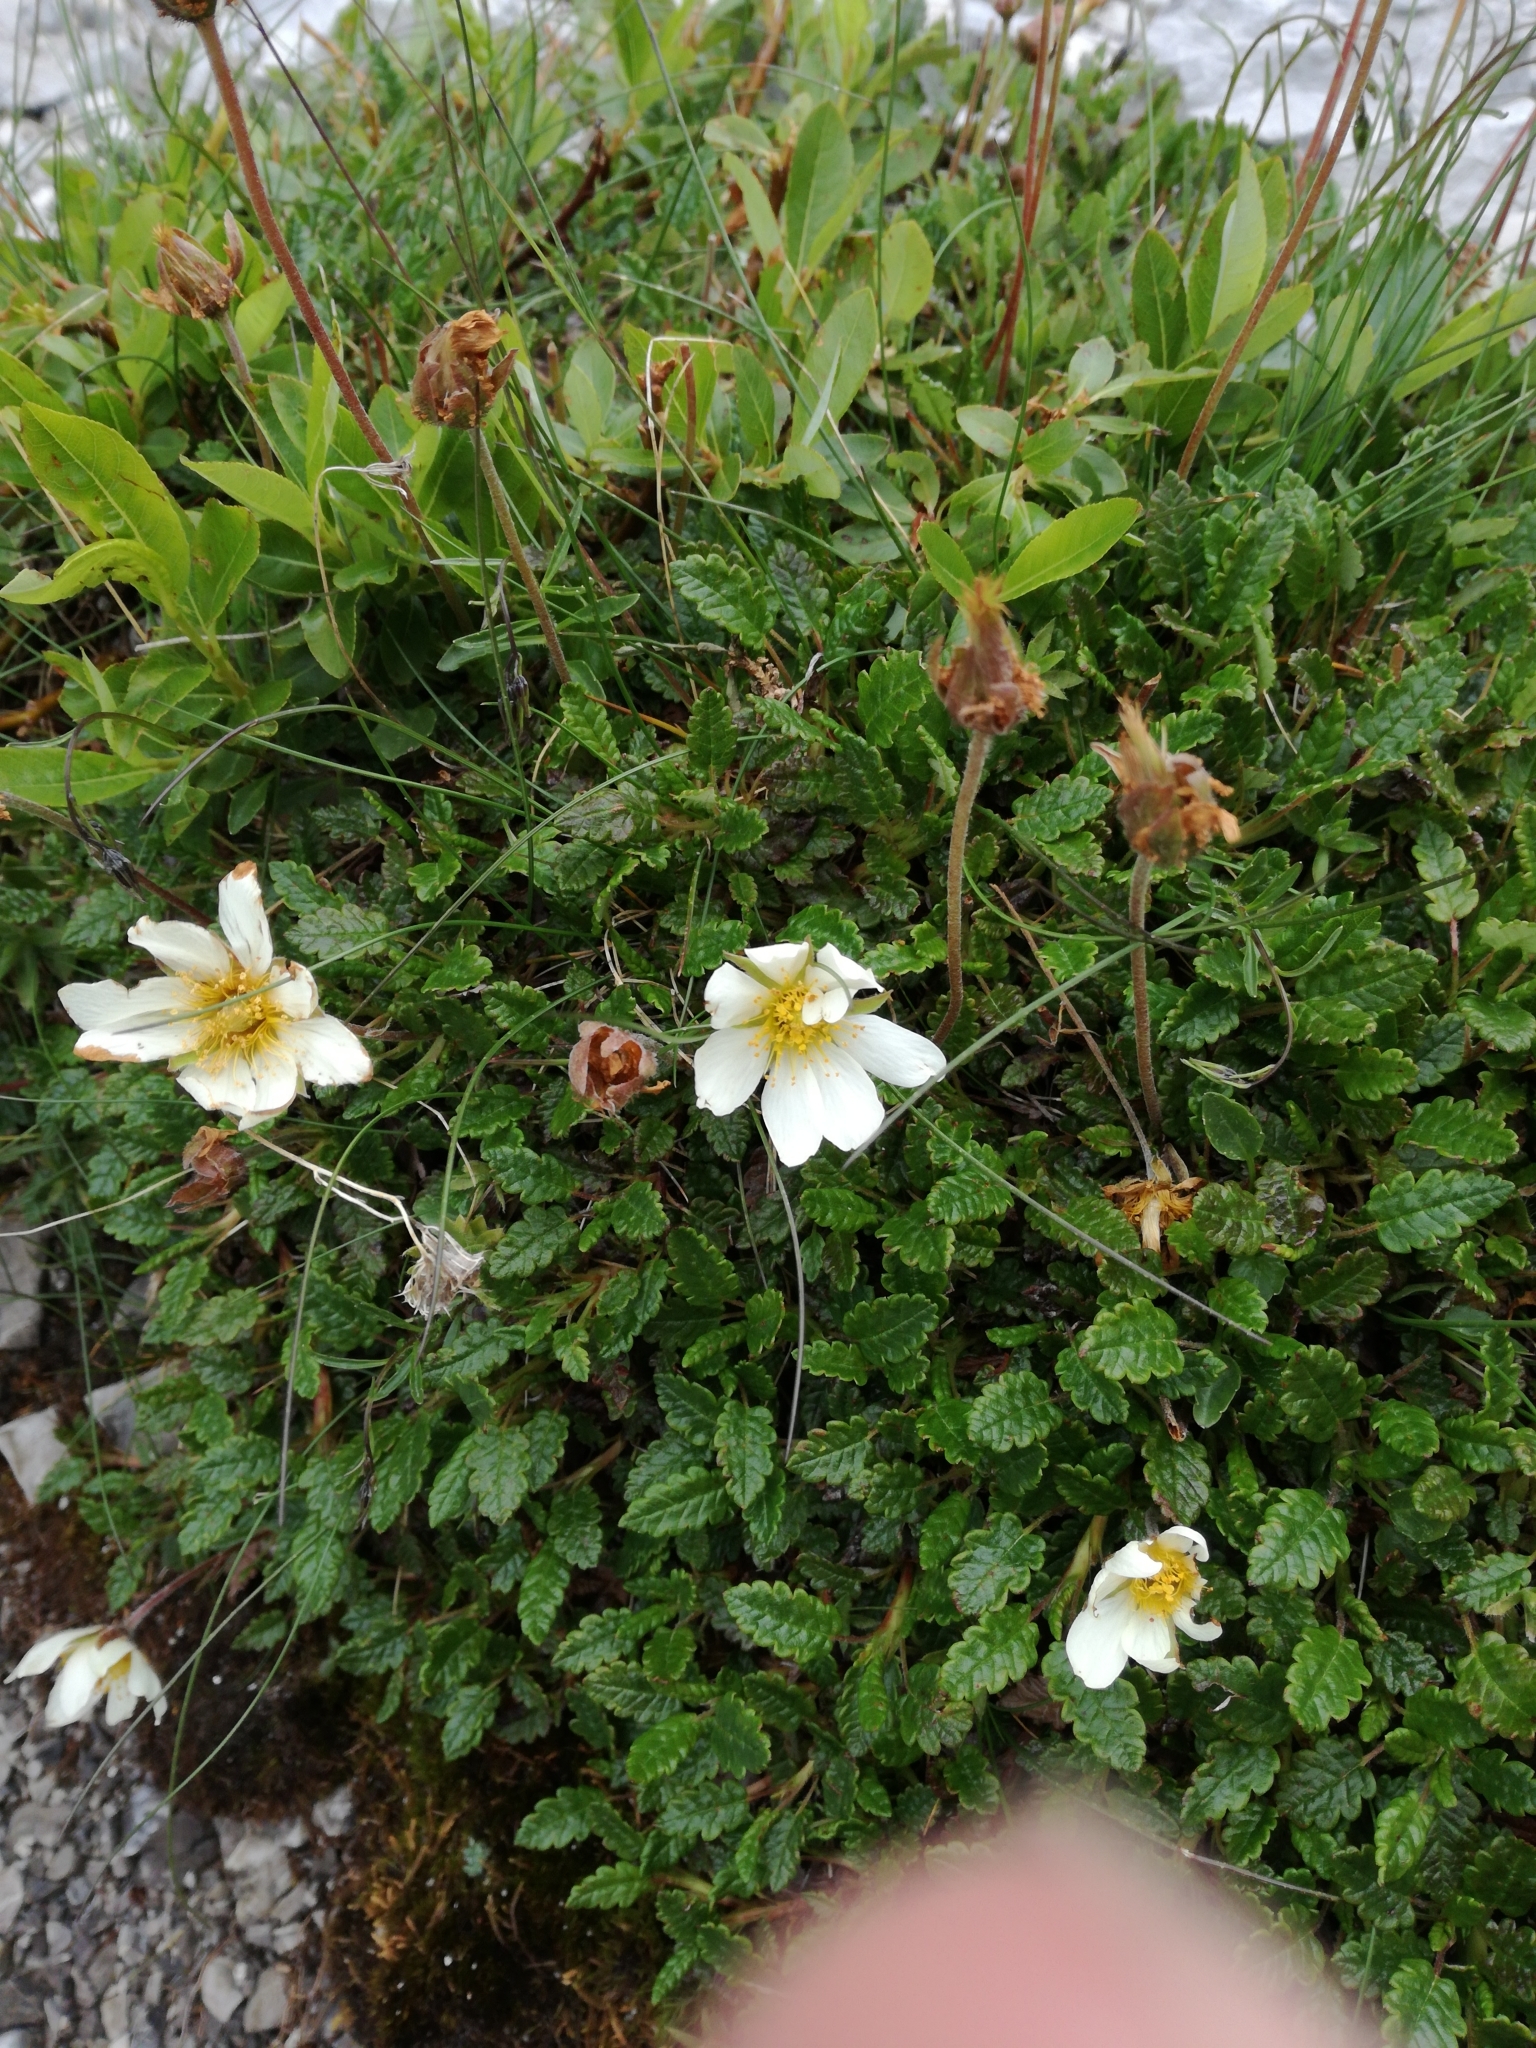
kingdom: Plantae
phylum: Tracheophyta
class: Magnoliopsida
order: Rosales
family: Rosaceae
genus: Dryas
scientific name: Dryas octopetala
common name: Eight-petal mountain-avens
